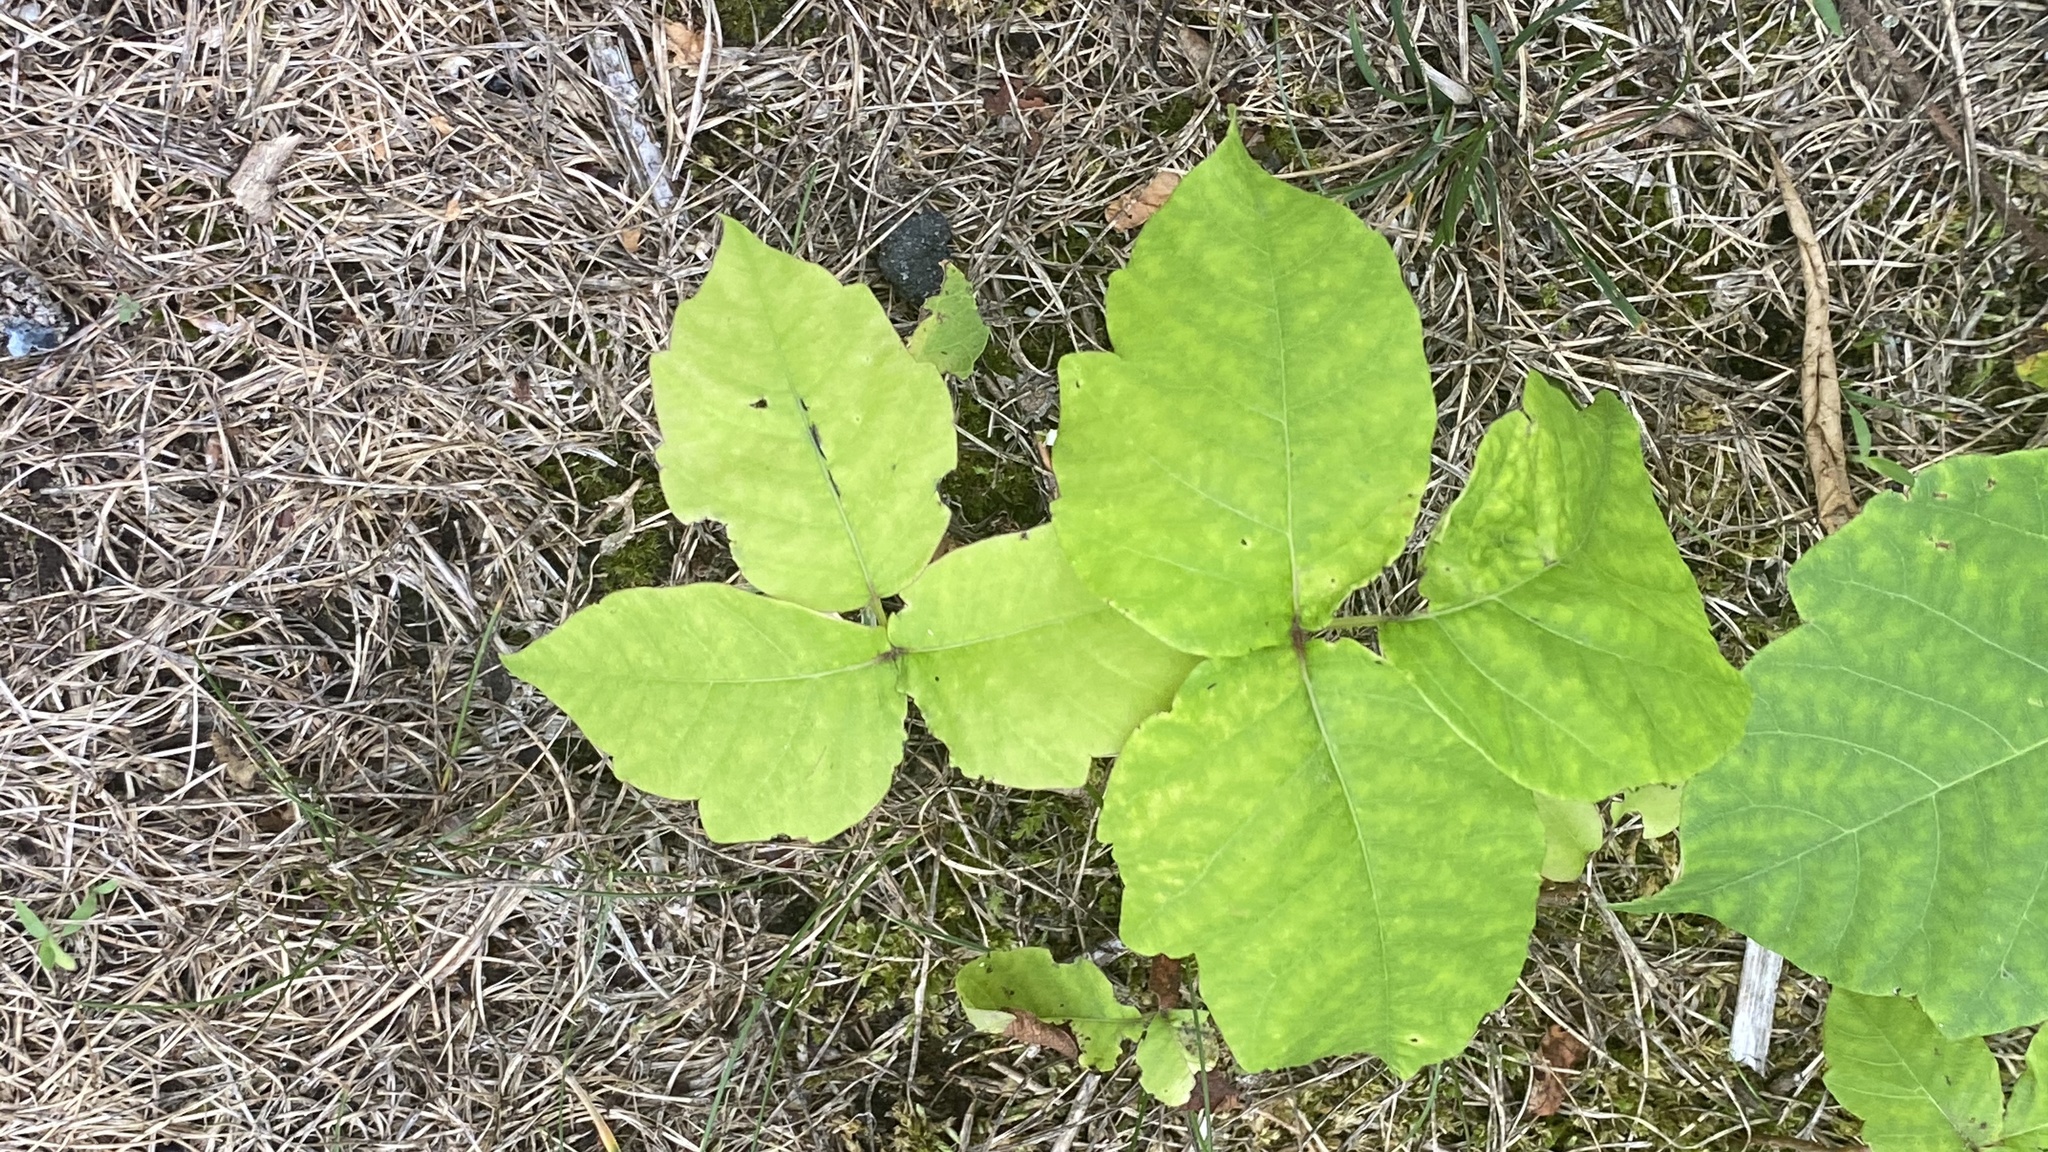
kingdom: Plantae
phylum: Tracheophyta
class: Magnoliopsida
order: Sapindales
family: Anacardiaceae
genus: Toxicodendron
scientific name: Toxicodendron radicans
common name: Poison ivy
